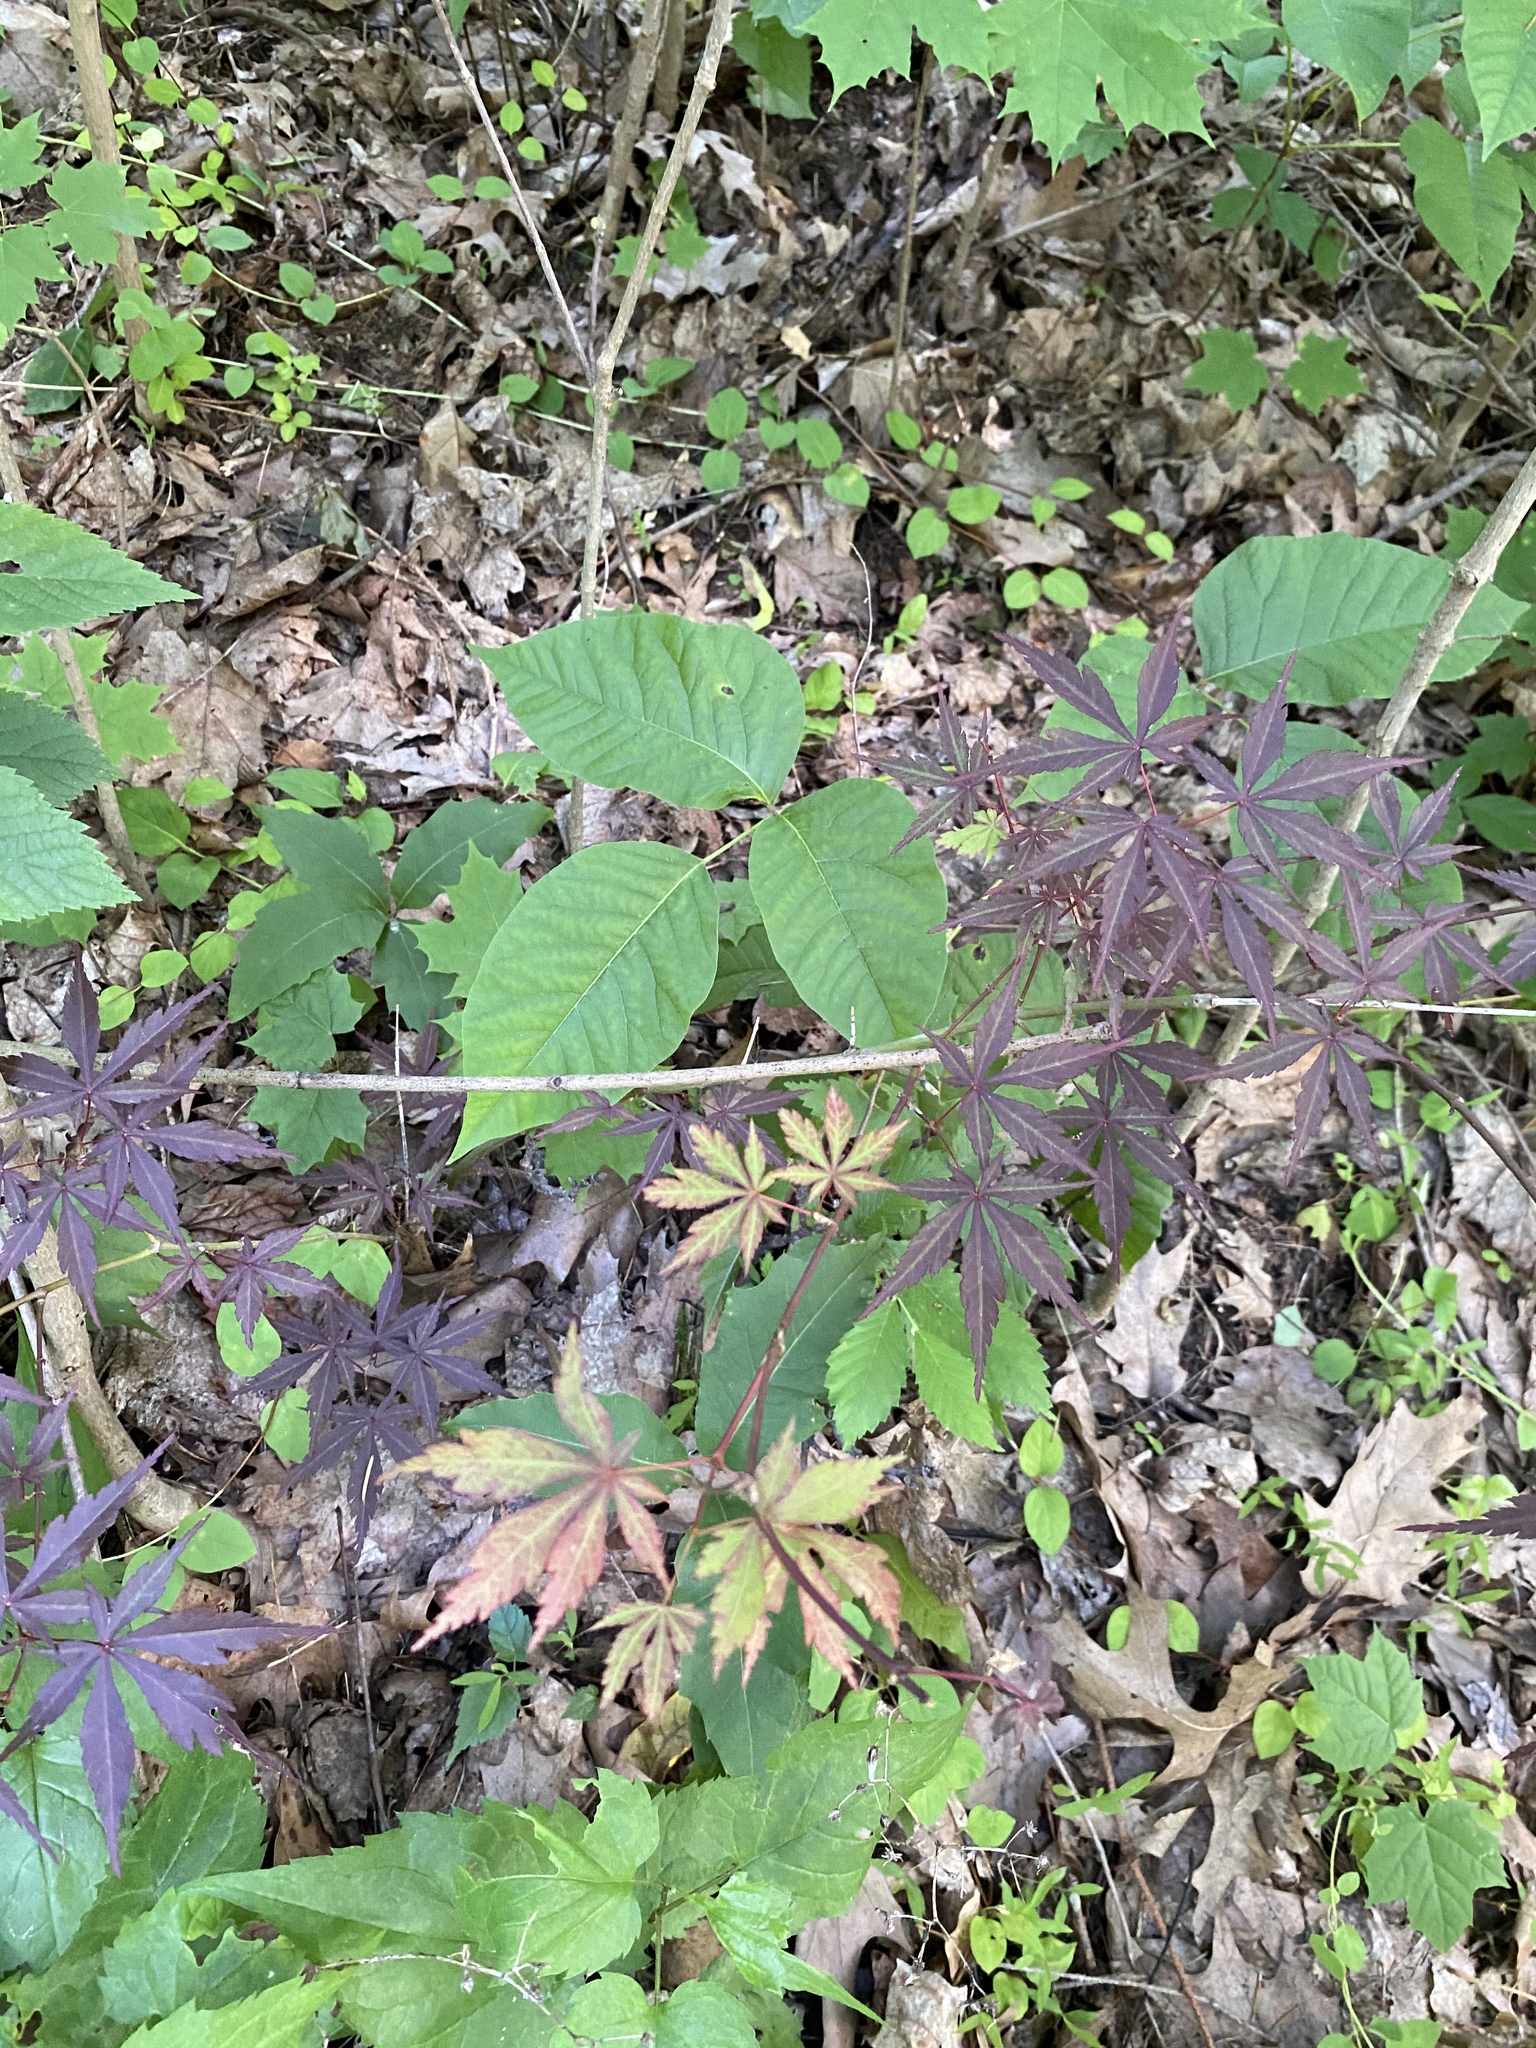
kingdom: Plantae
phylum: Tracheophyta
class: Magnoliopsida
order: Sapindales
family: Sapindaceae
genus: Acer
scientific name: Acer palmatum
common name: Japanese maple
